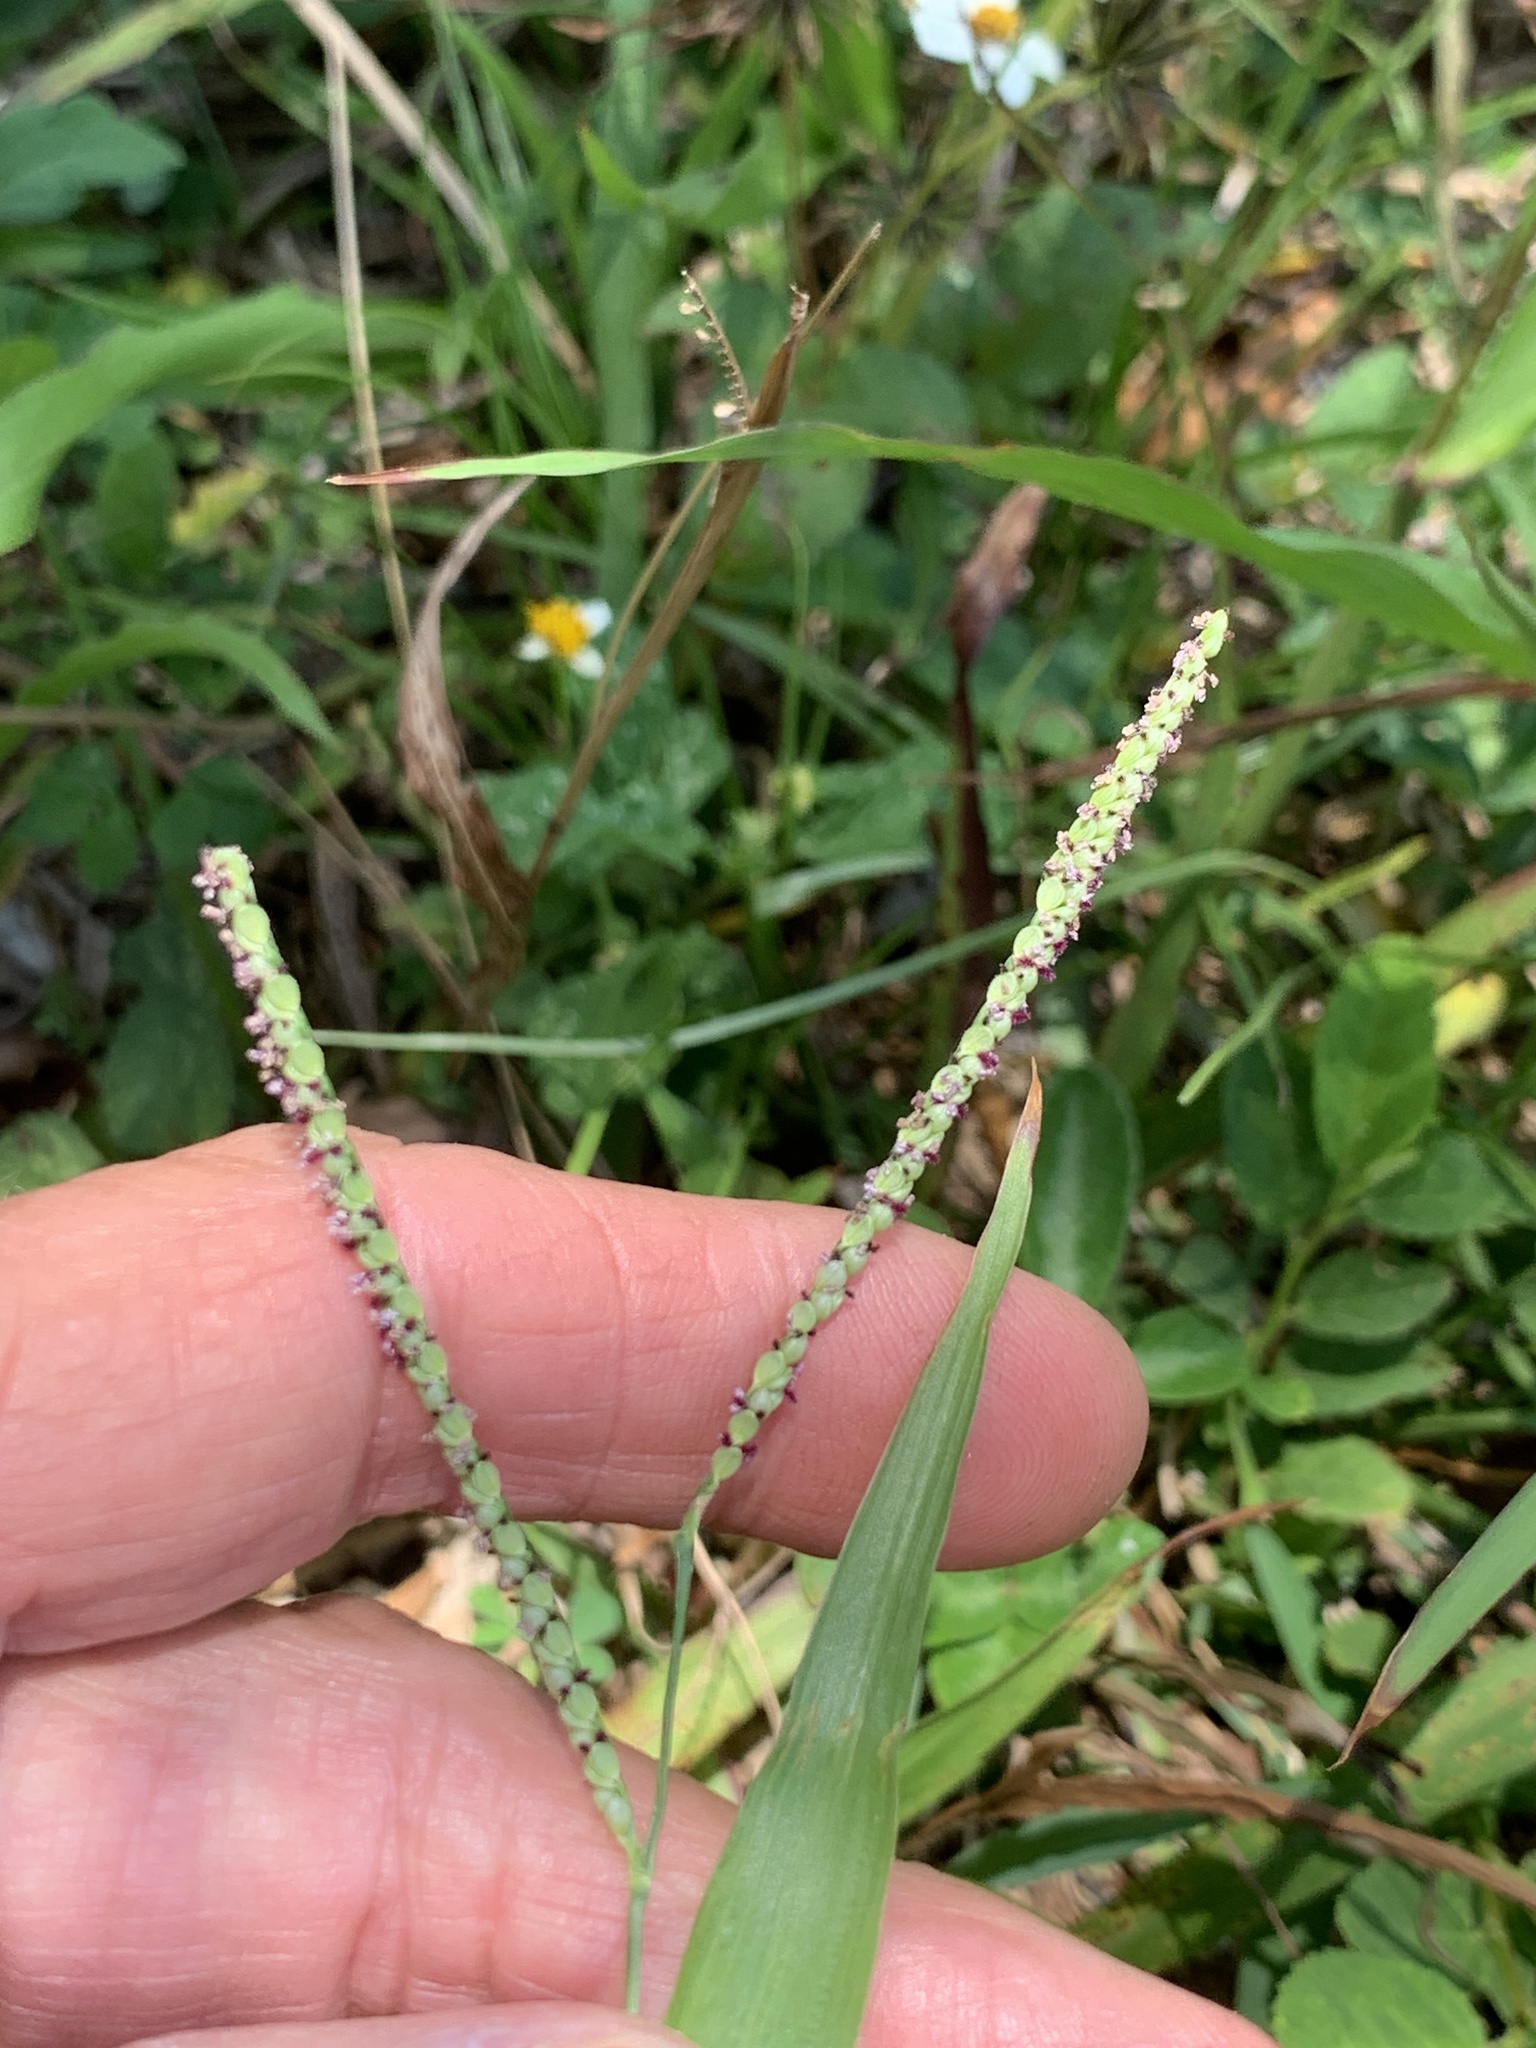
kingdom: Plantae
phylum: Tracheophyta
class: Liliopsida
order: Poales
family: Poaceae
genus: Paspalum
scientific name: Paspalum setaceum
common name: Slender paspalum
